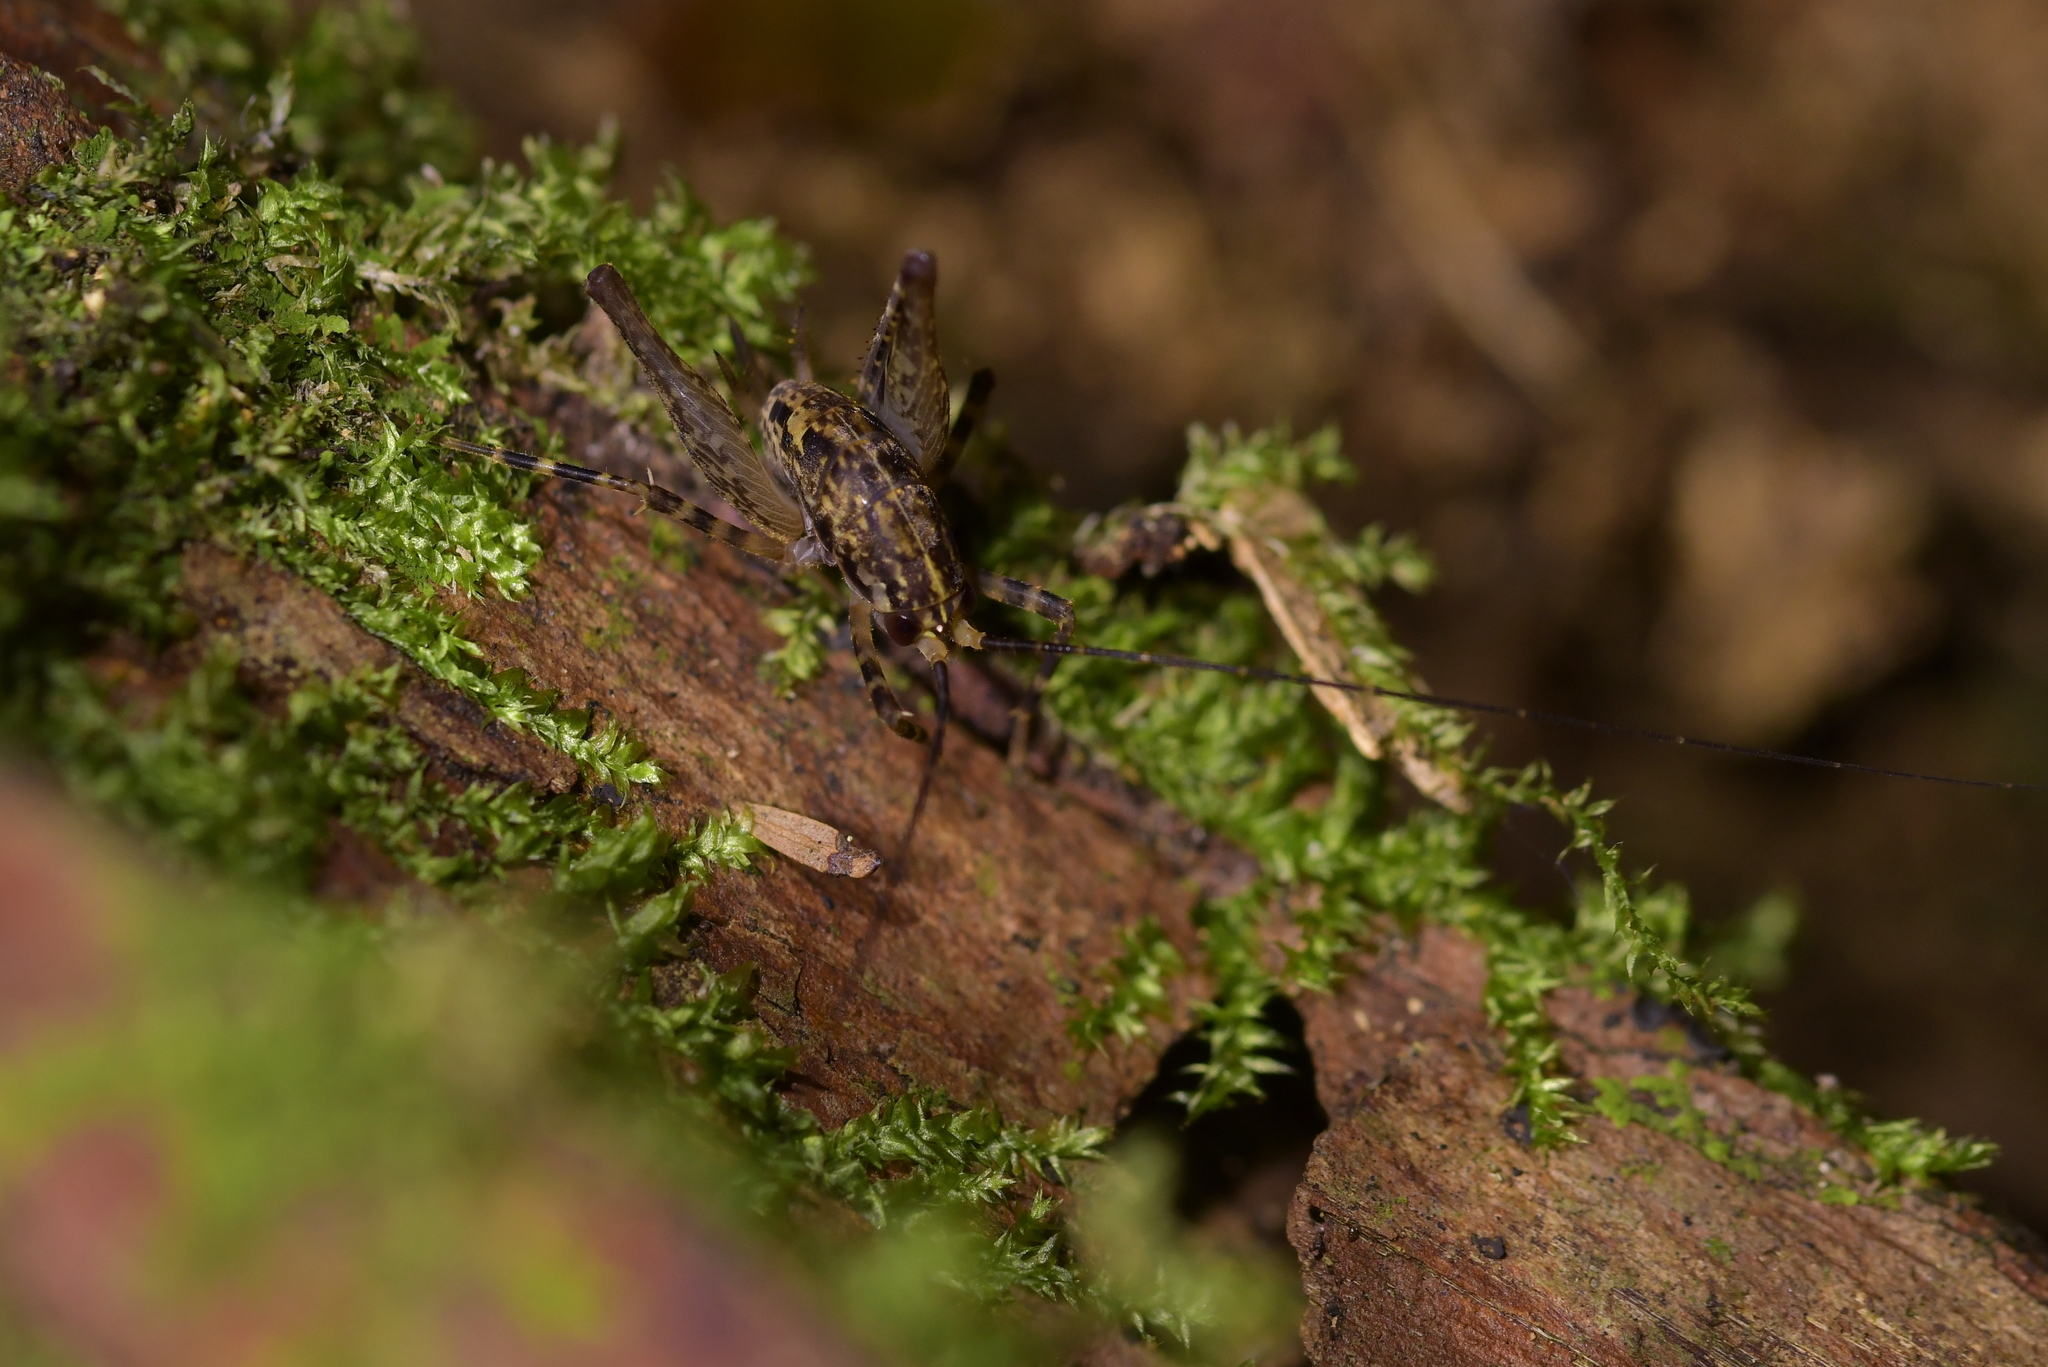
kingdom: Animalia
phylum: Arthropoda
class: Insecta
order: Orthoptera
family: Rhaphidophoridae
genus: Pleioplectron
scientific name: Pleioplectron hudsoni
